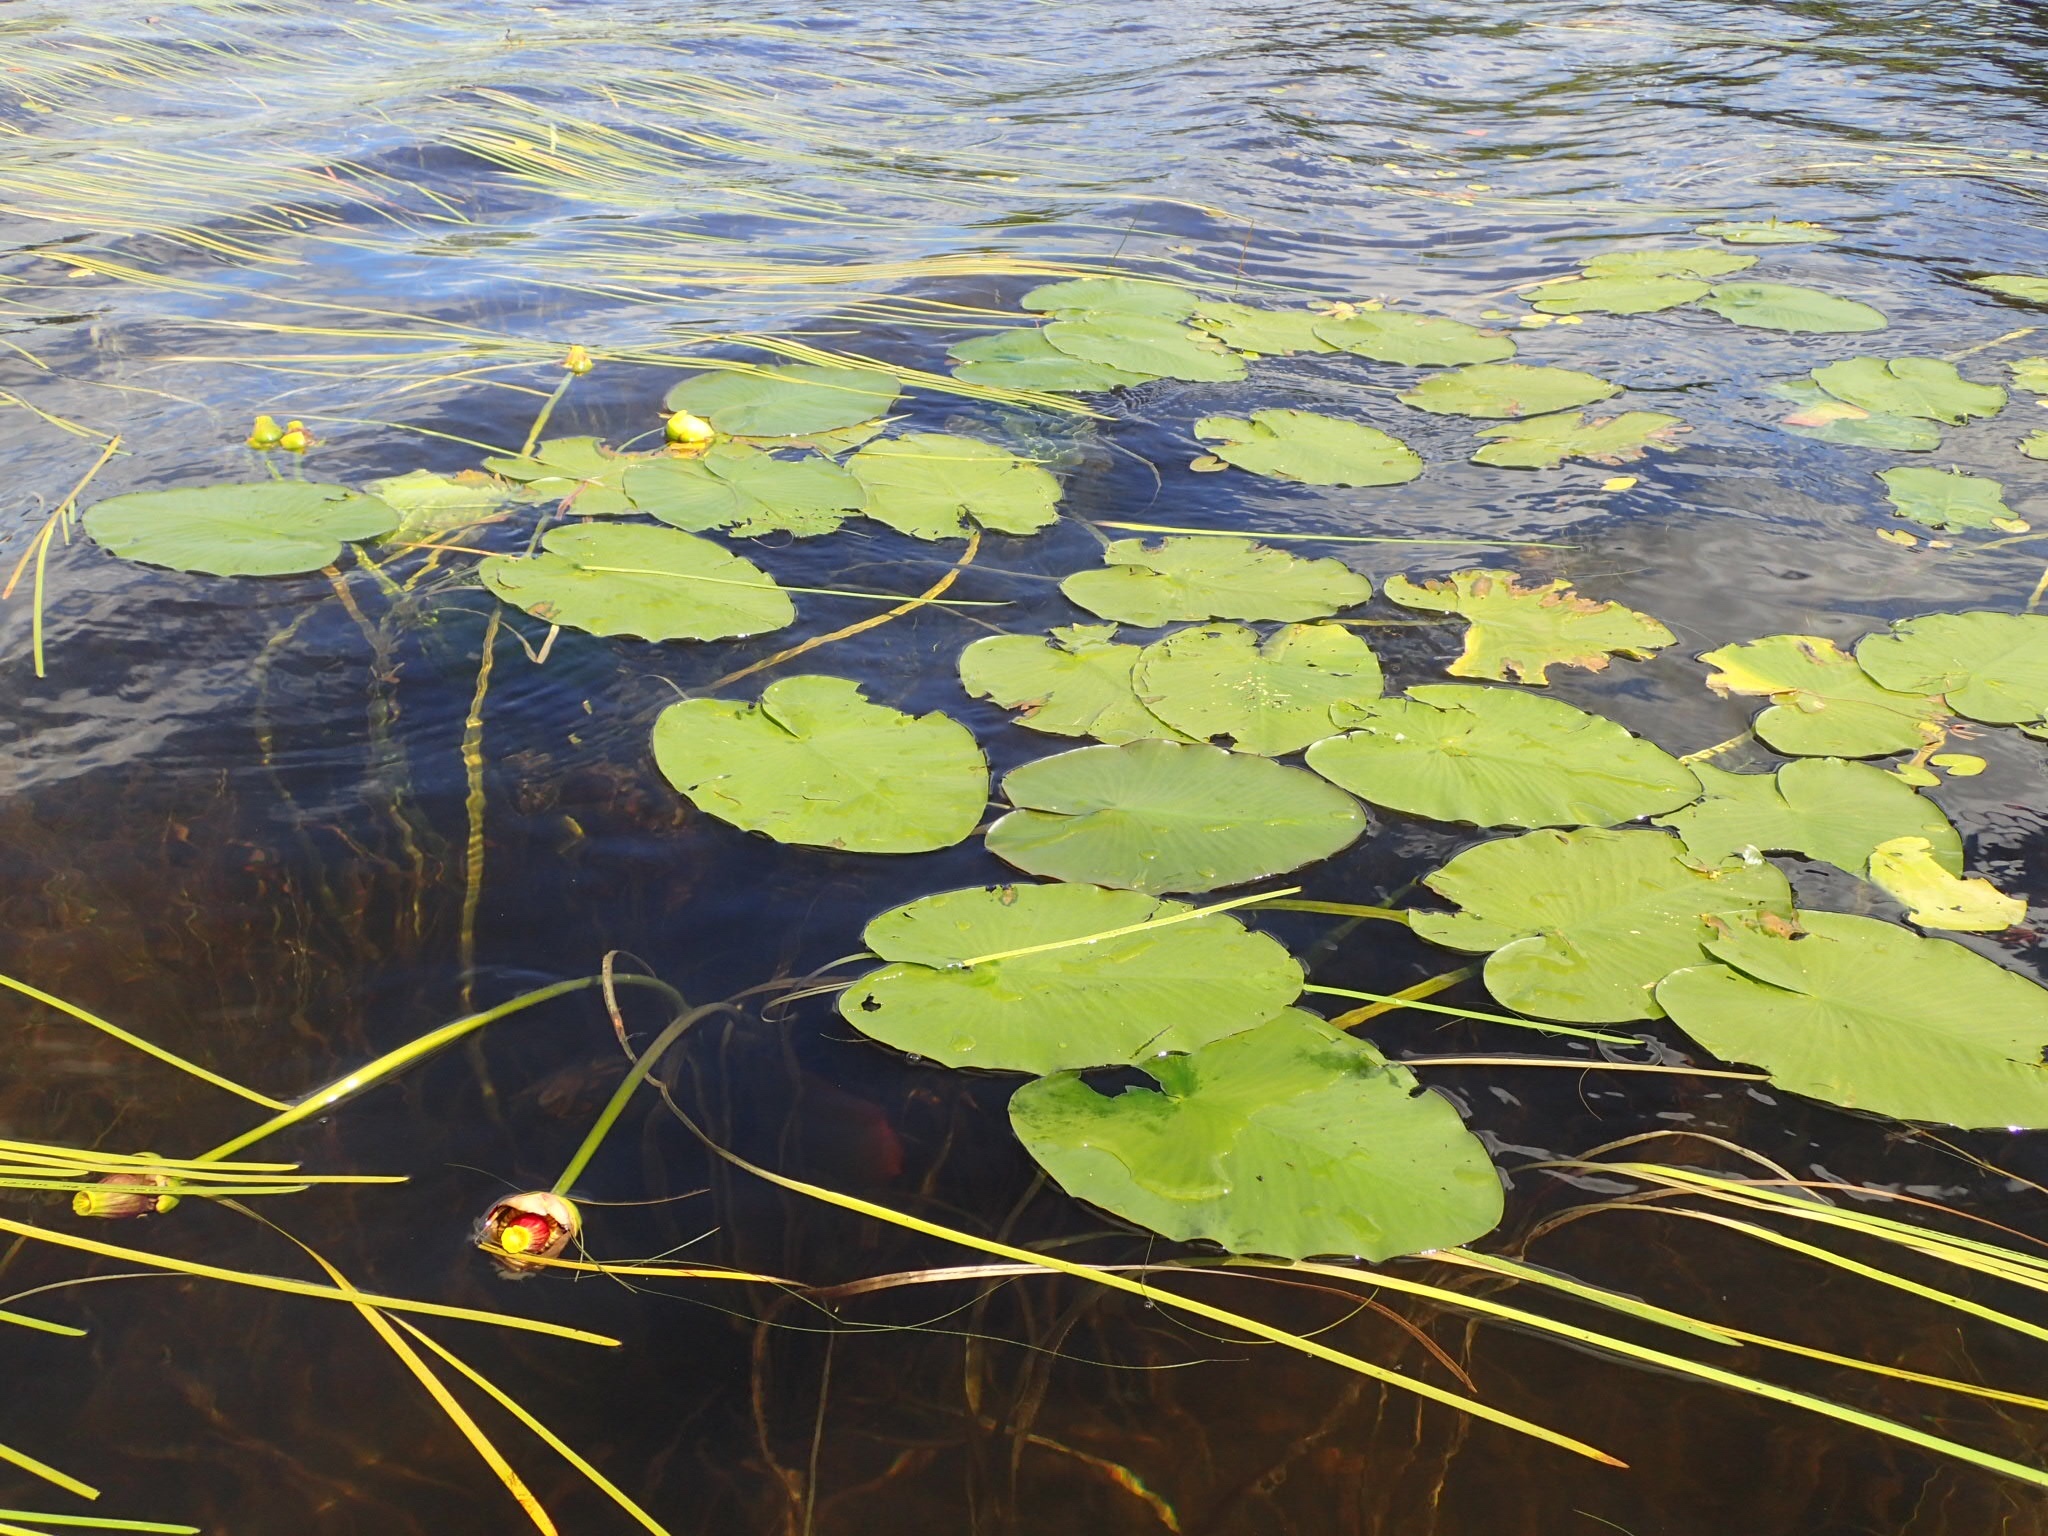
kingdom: Plantae
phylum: Tracheophyta
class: Magnoliopsida
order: Nymphaeales
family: Nymphaeaceae
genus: Nuphar
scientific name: Nuphar variegata
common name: Beaver-root
